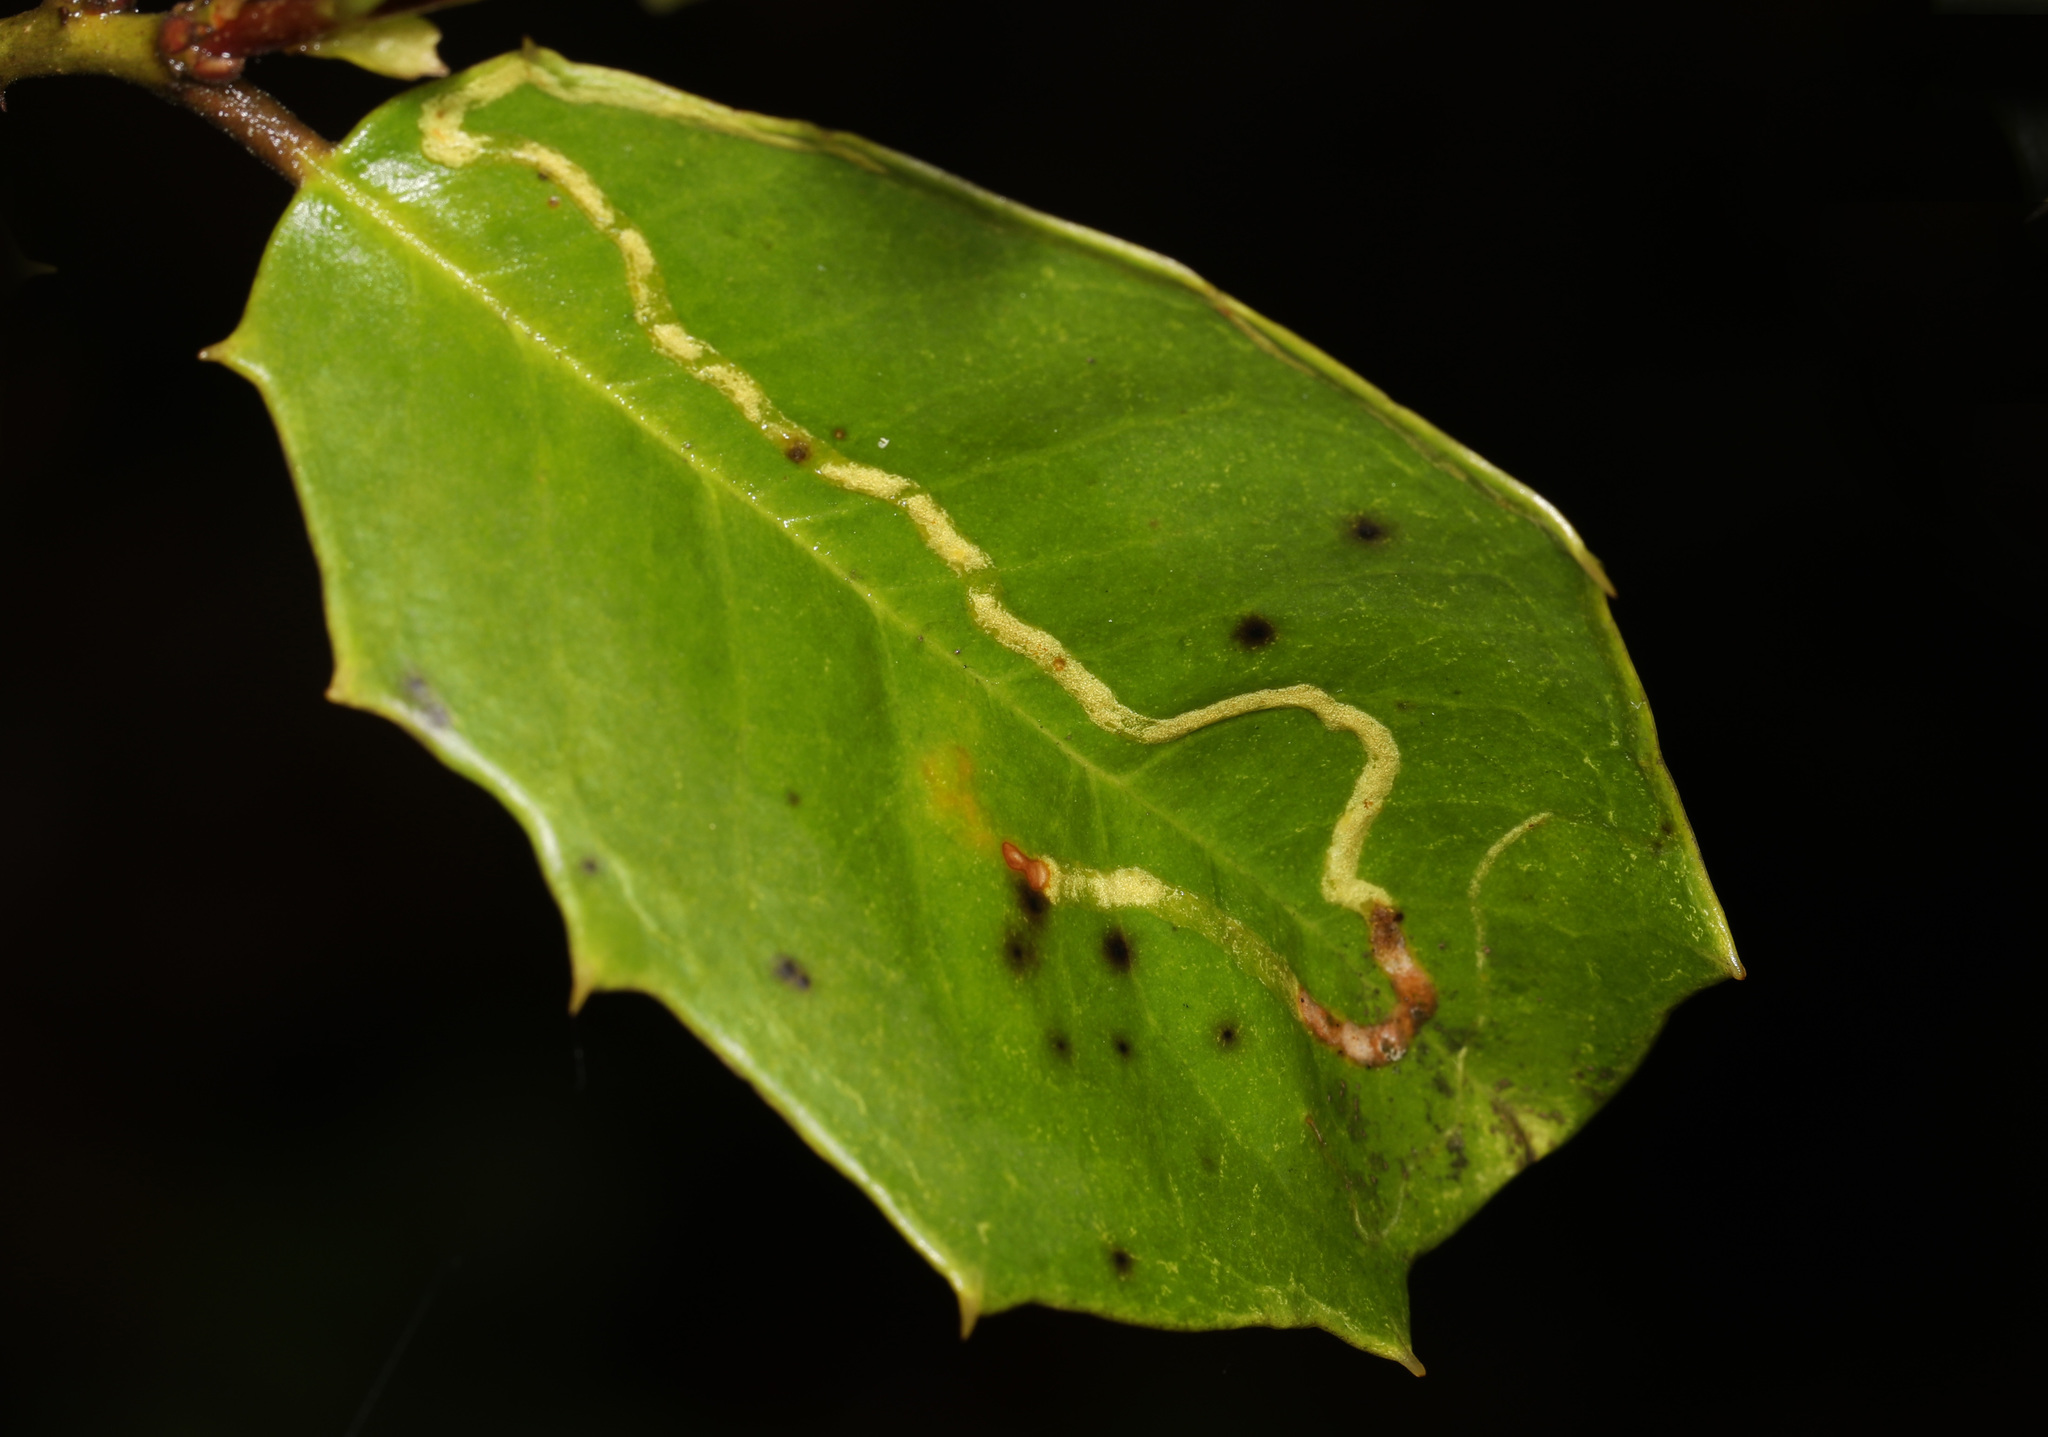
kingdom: Animalia
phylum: Arthropoda
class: Insecta
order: Diptera
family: Agromyzidae
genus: Phytomyza
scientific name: Phytomyza opacae
